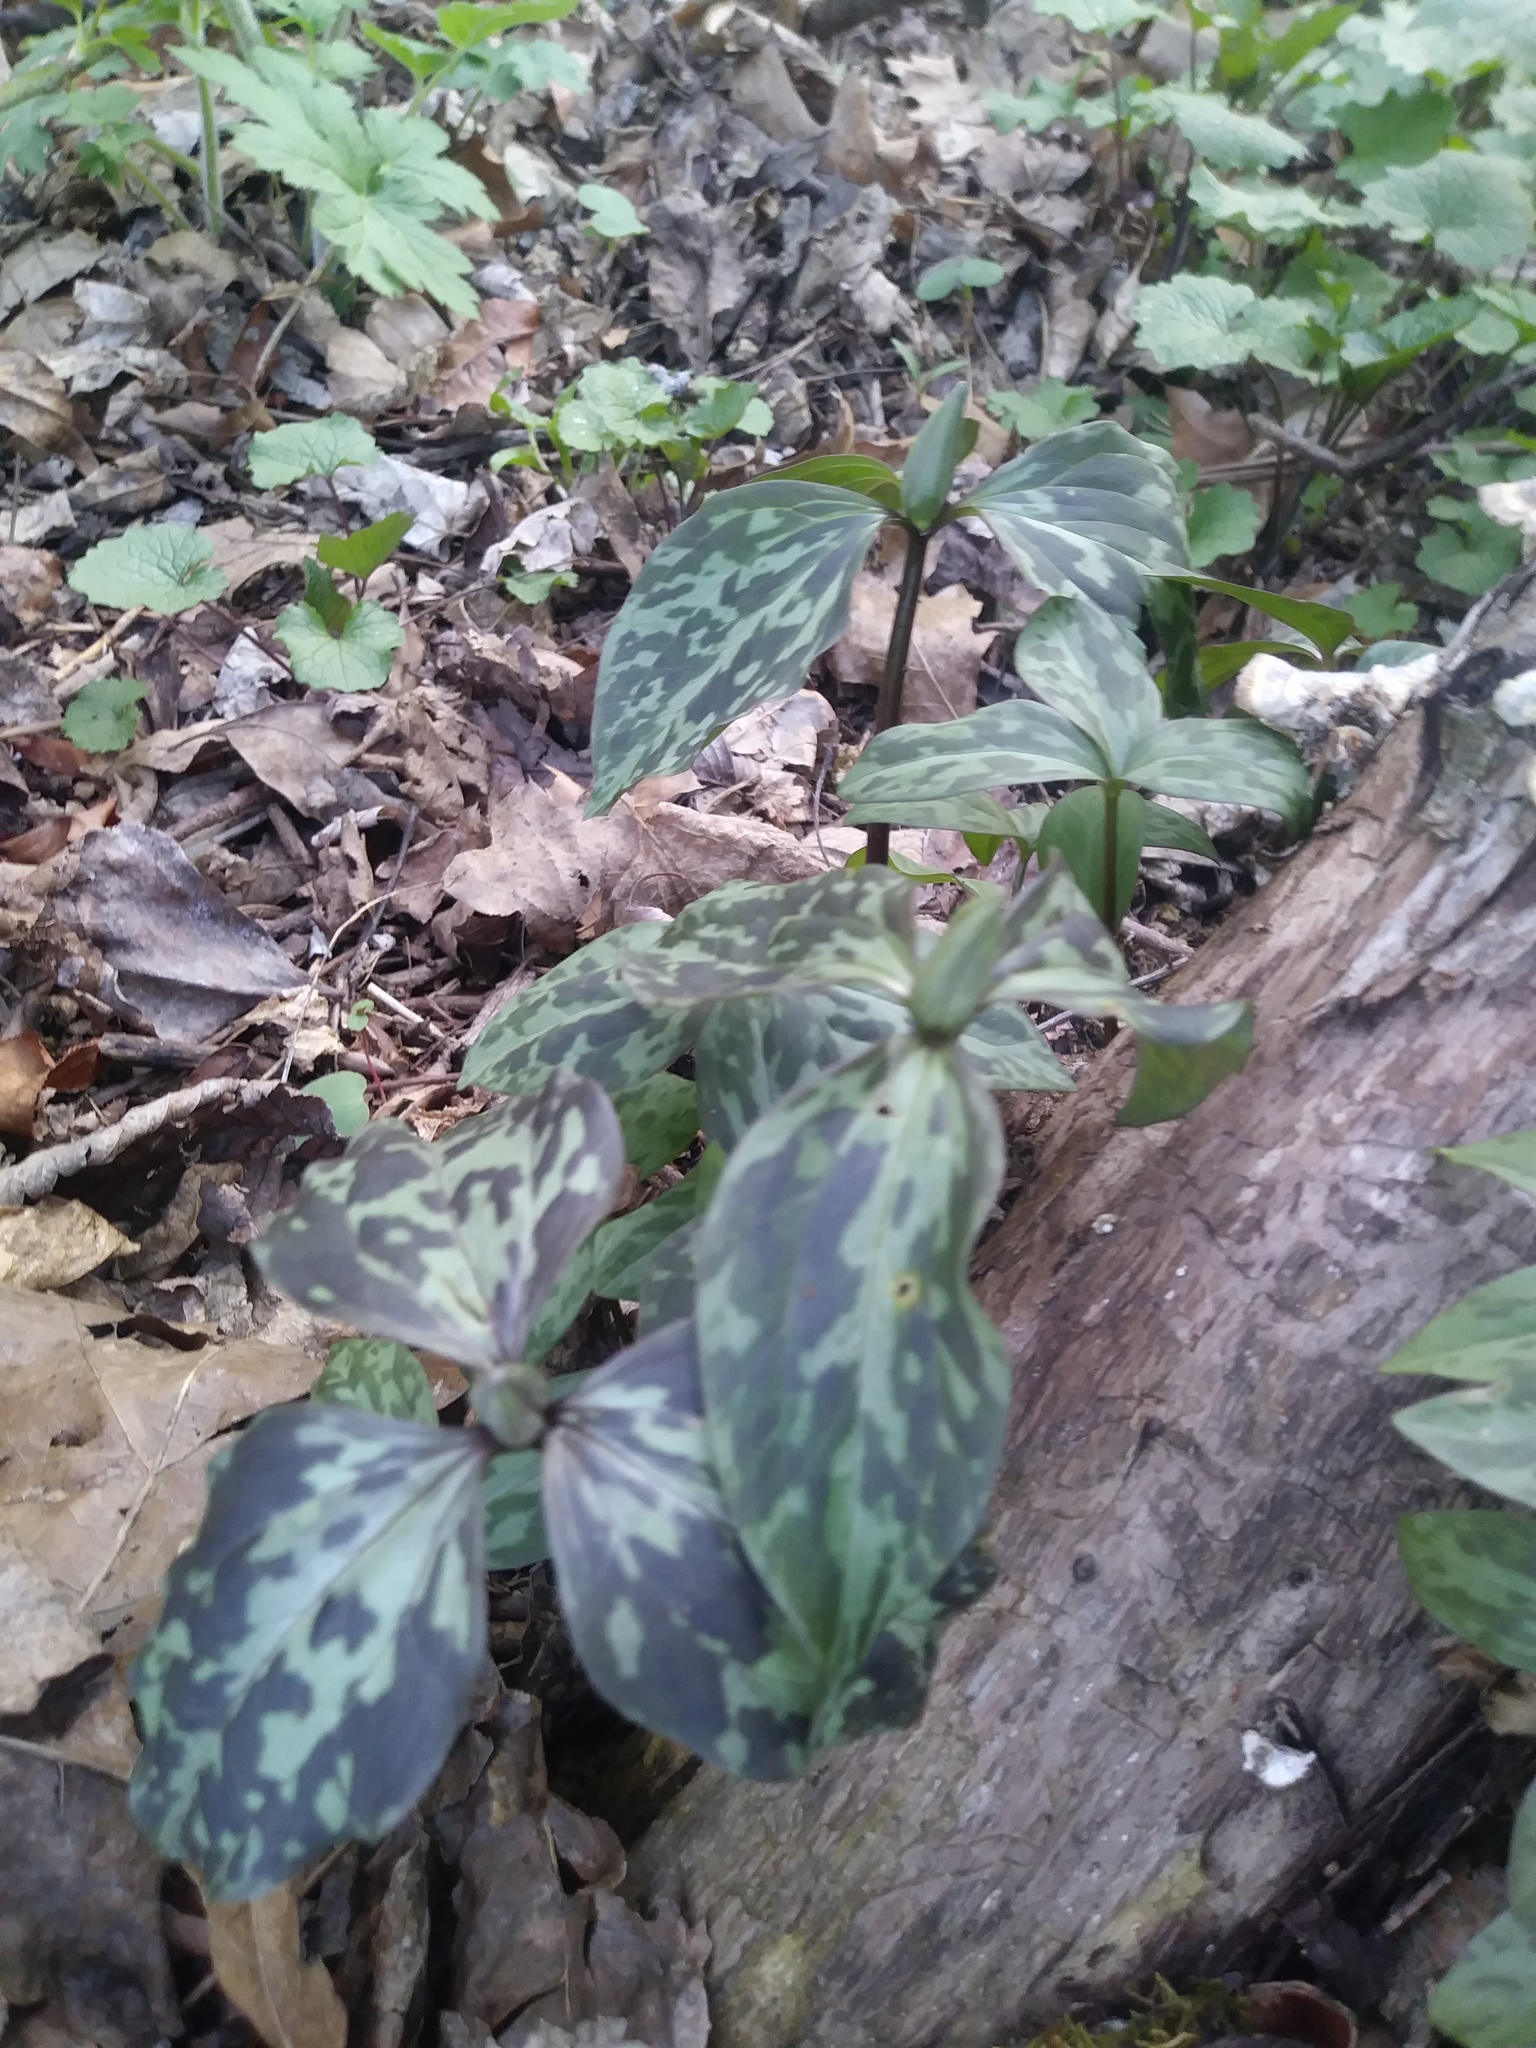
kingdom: Plantae
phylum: Tracheophyta
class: Liliopsida
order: Liliales
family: Melanthiaceae
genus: Trillium
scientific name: Trillium recurvatum
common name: Bloody butcher
